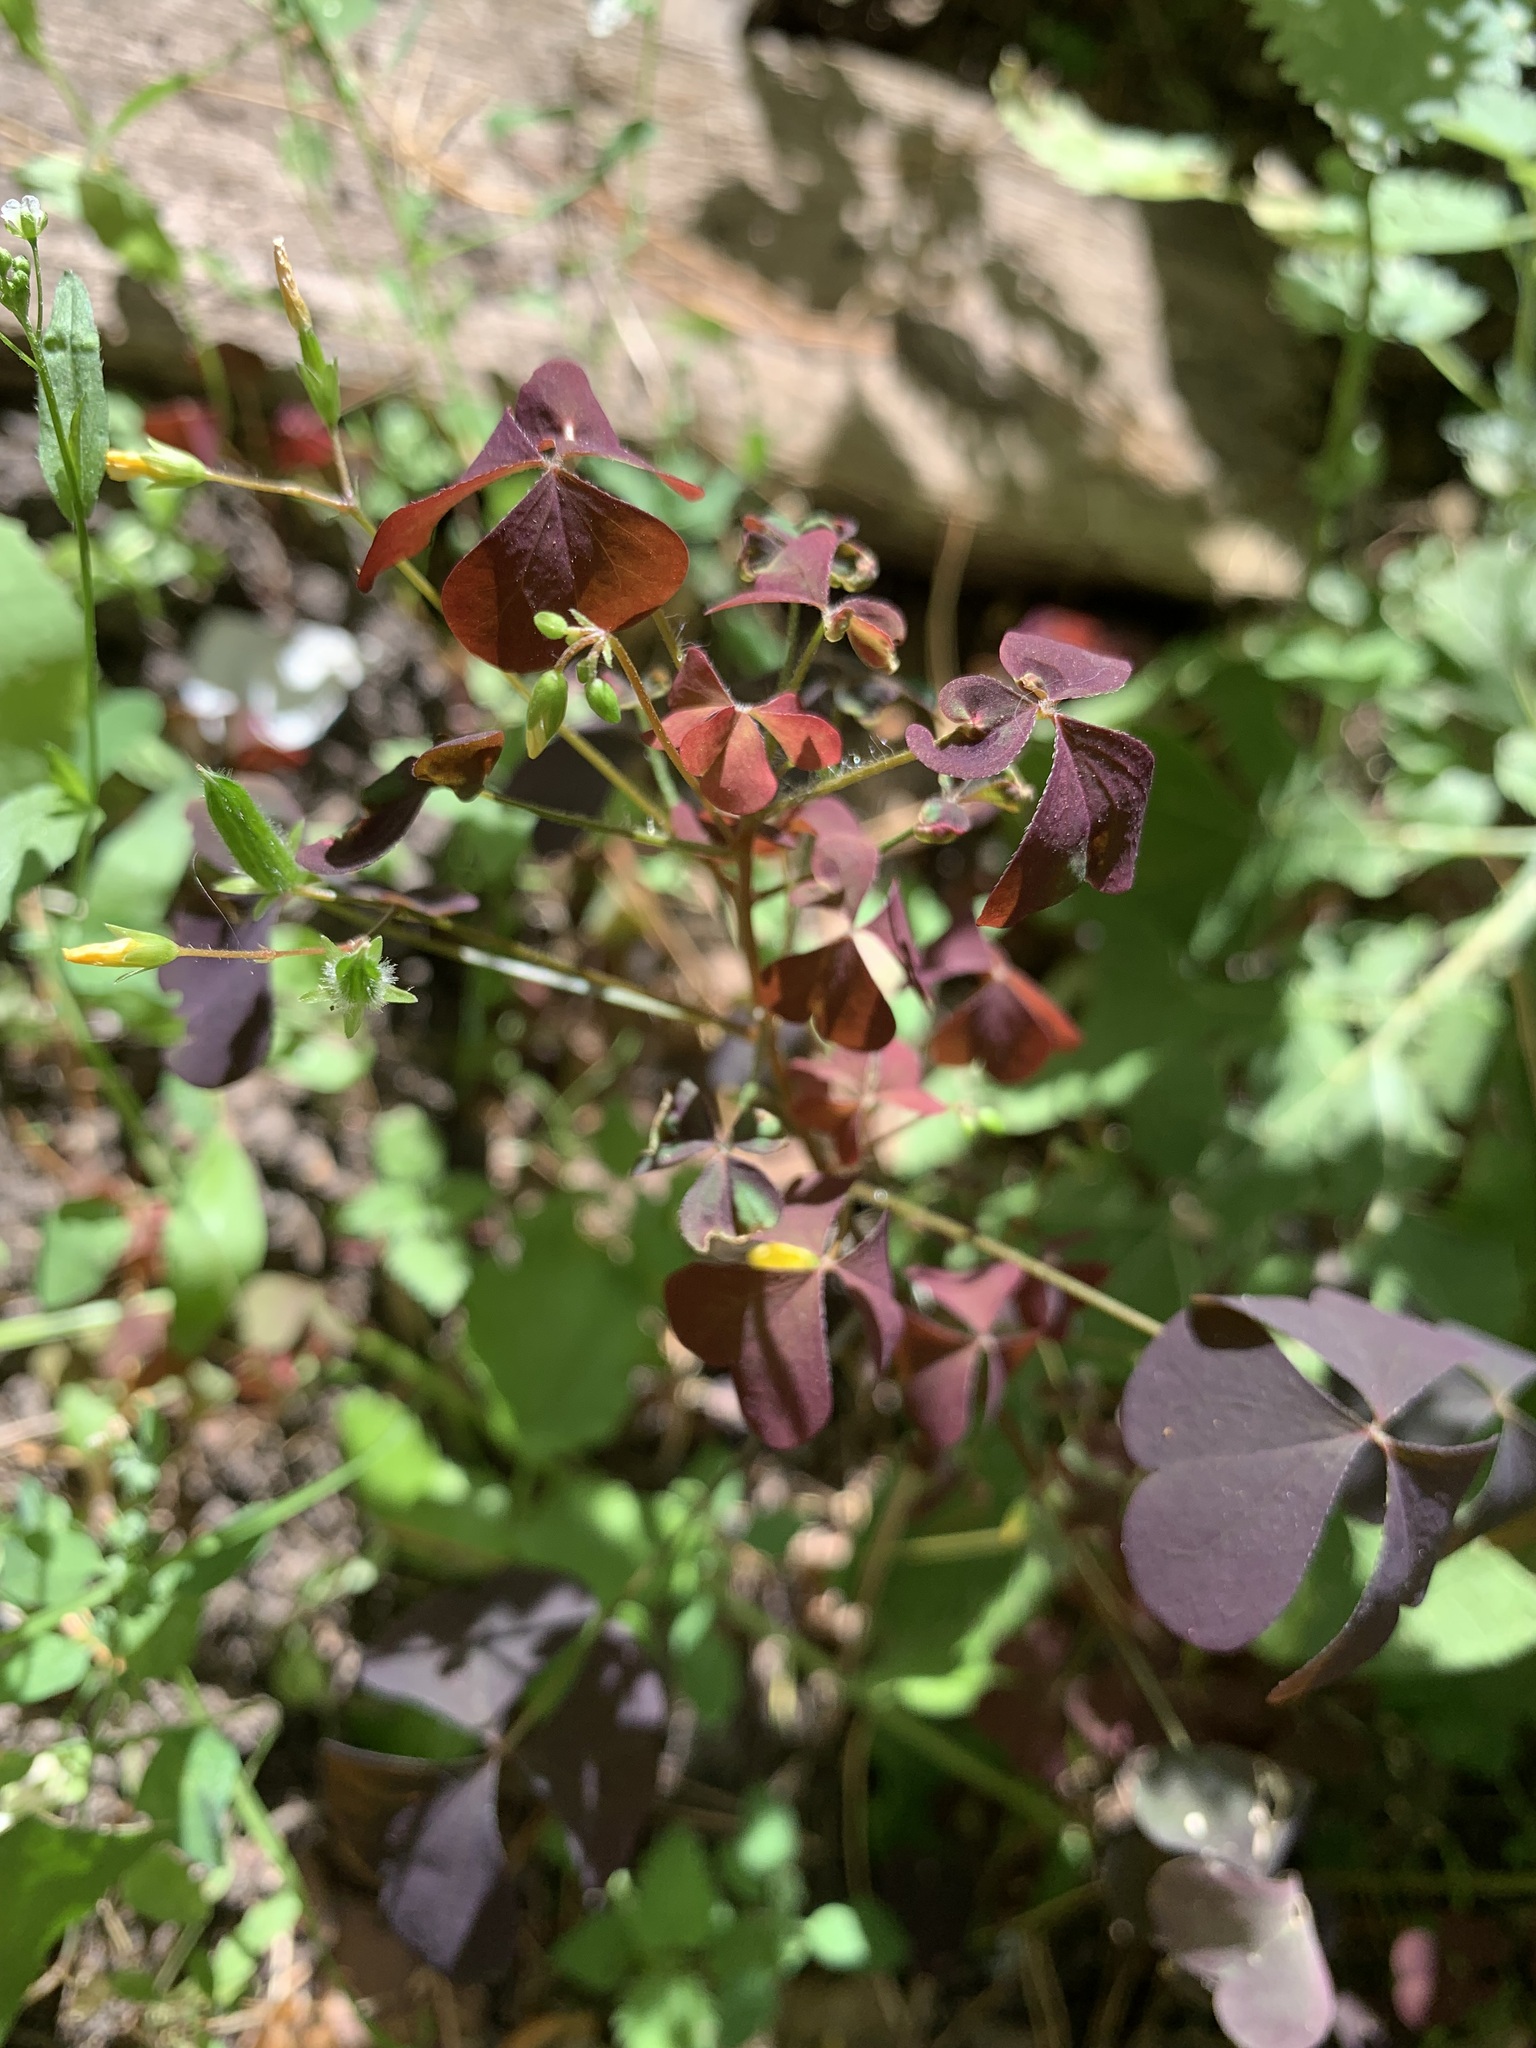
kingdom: Plantae
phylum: Tracheophyta
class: Magnoliopsida
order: Oxalidales
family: Oxalidaceae
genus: Oxalis
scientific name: Oxalis stricta
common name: Upright yellow-sorrel
